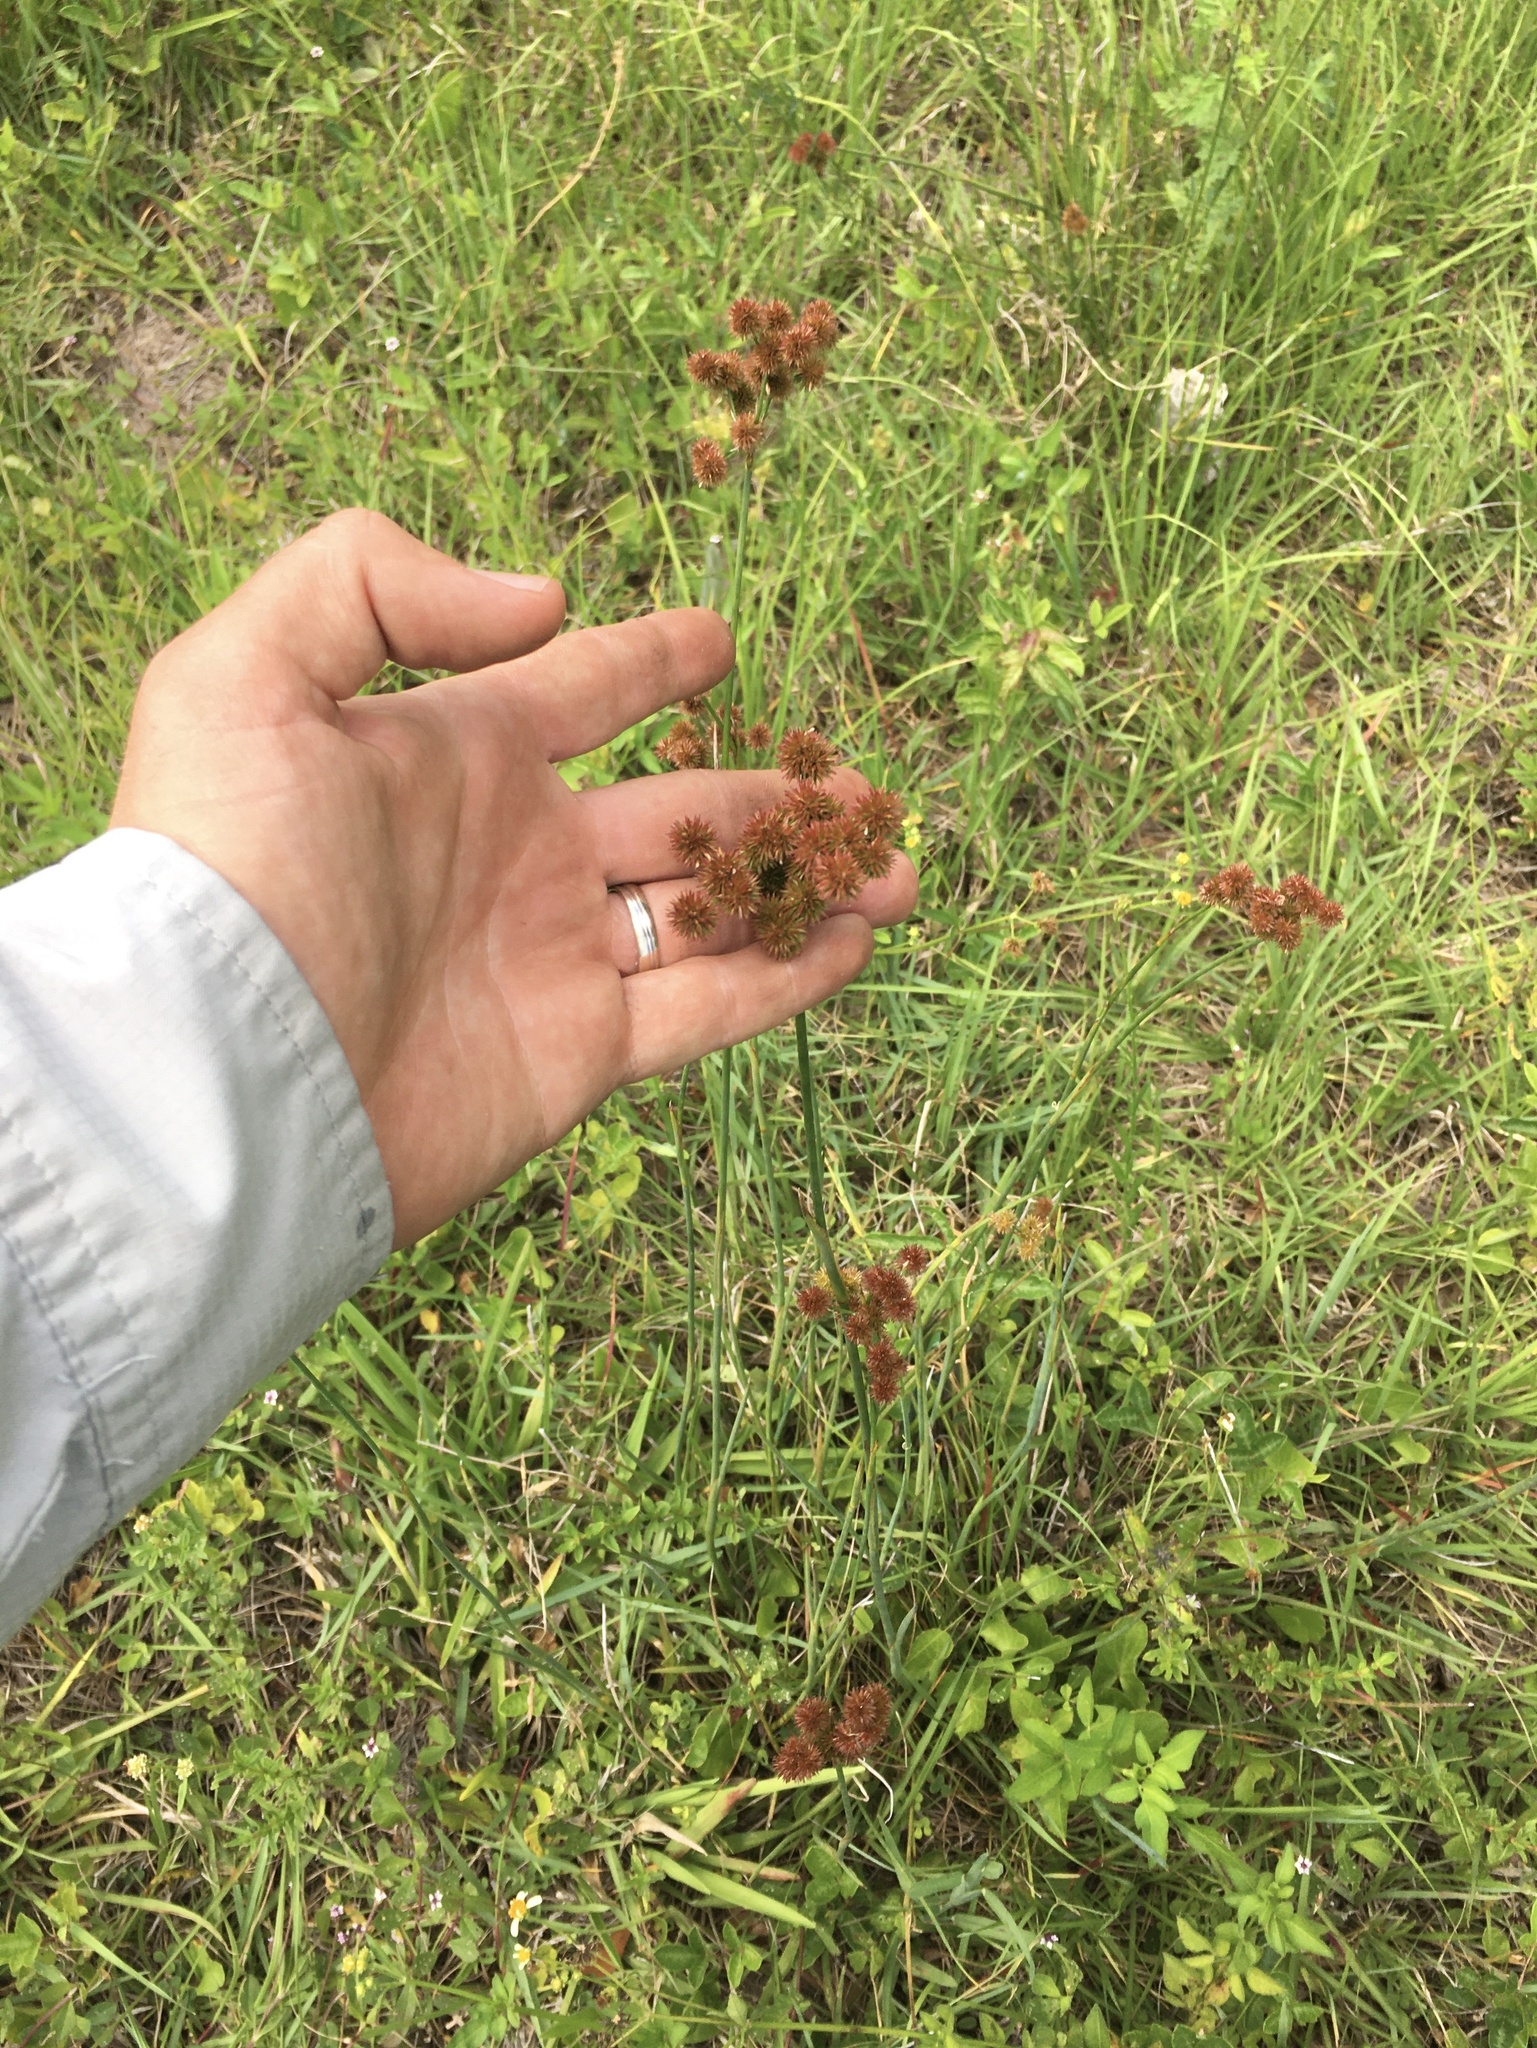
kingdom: Plantae
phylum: Tracheophyta
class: Liliopsida
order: Poales
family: Juncaceae
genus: Juncus
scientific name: Juncus megacephalus
